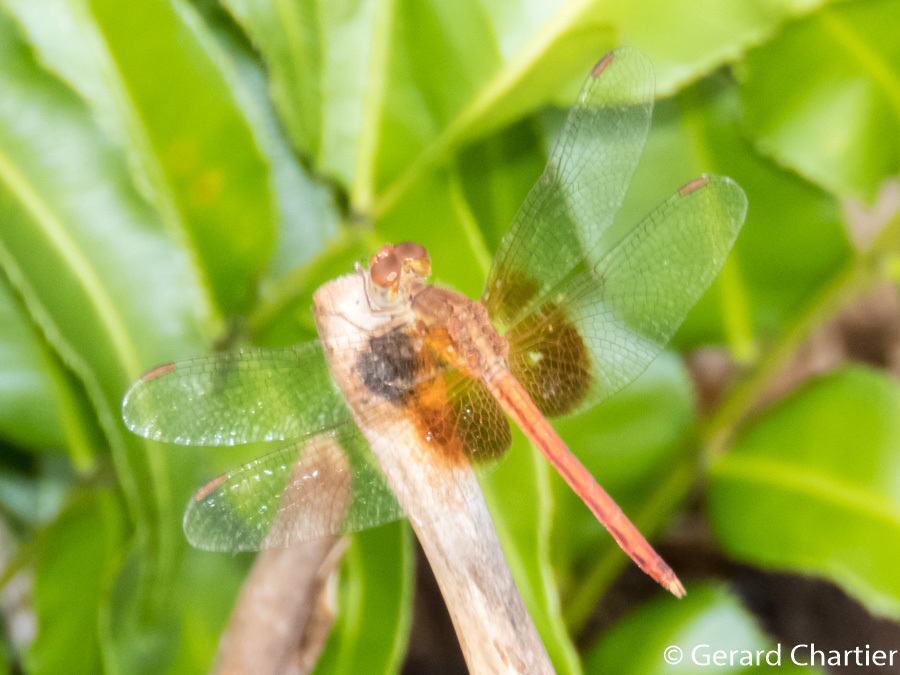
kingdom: Animalia
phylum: Arthropoda
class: Insecta
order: Odonata
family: Libellulidae
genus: Neurothemis
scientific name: Neurothemis intermedia
